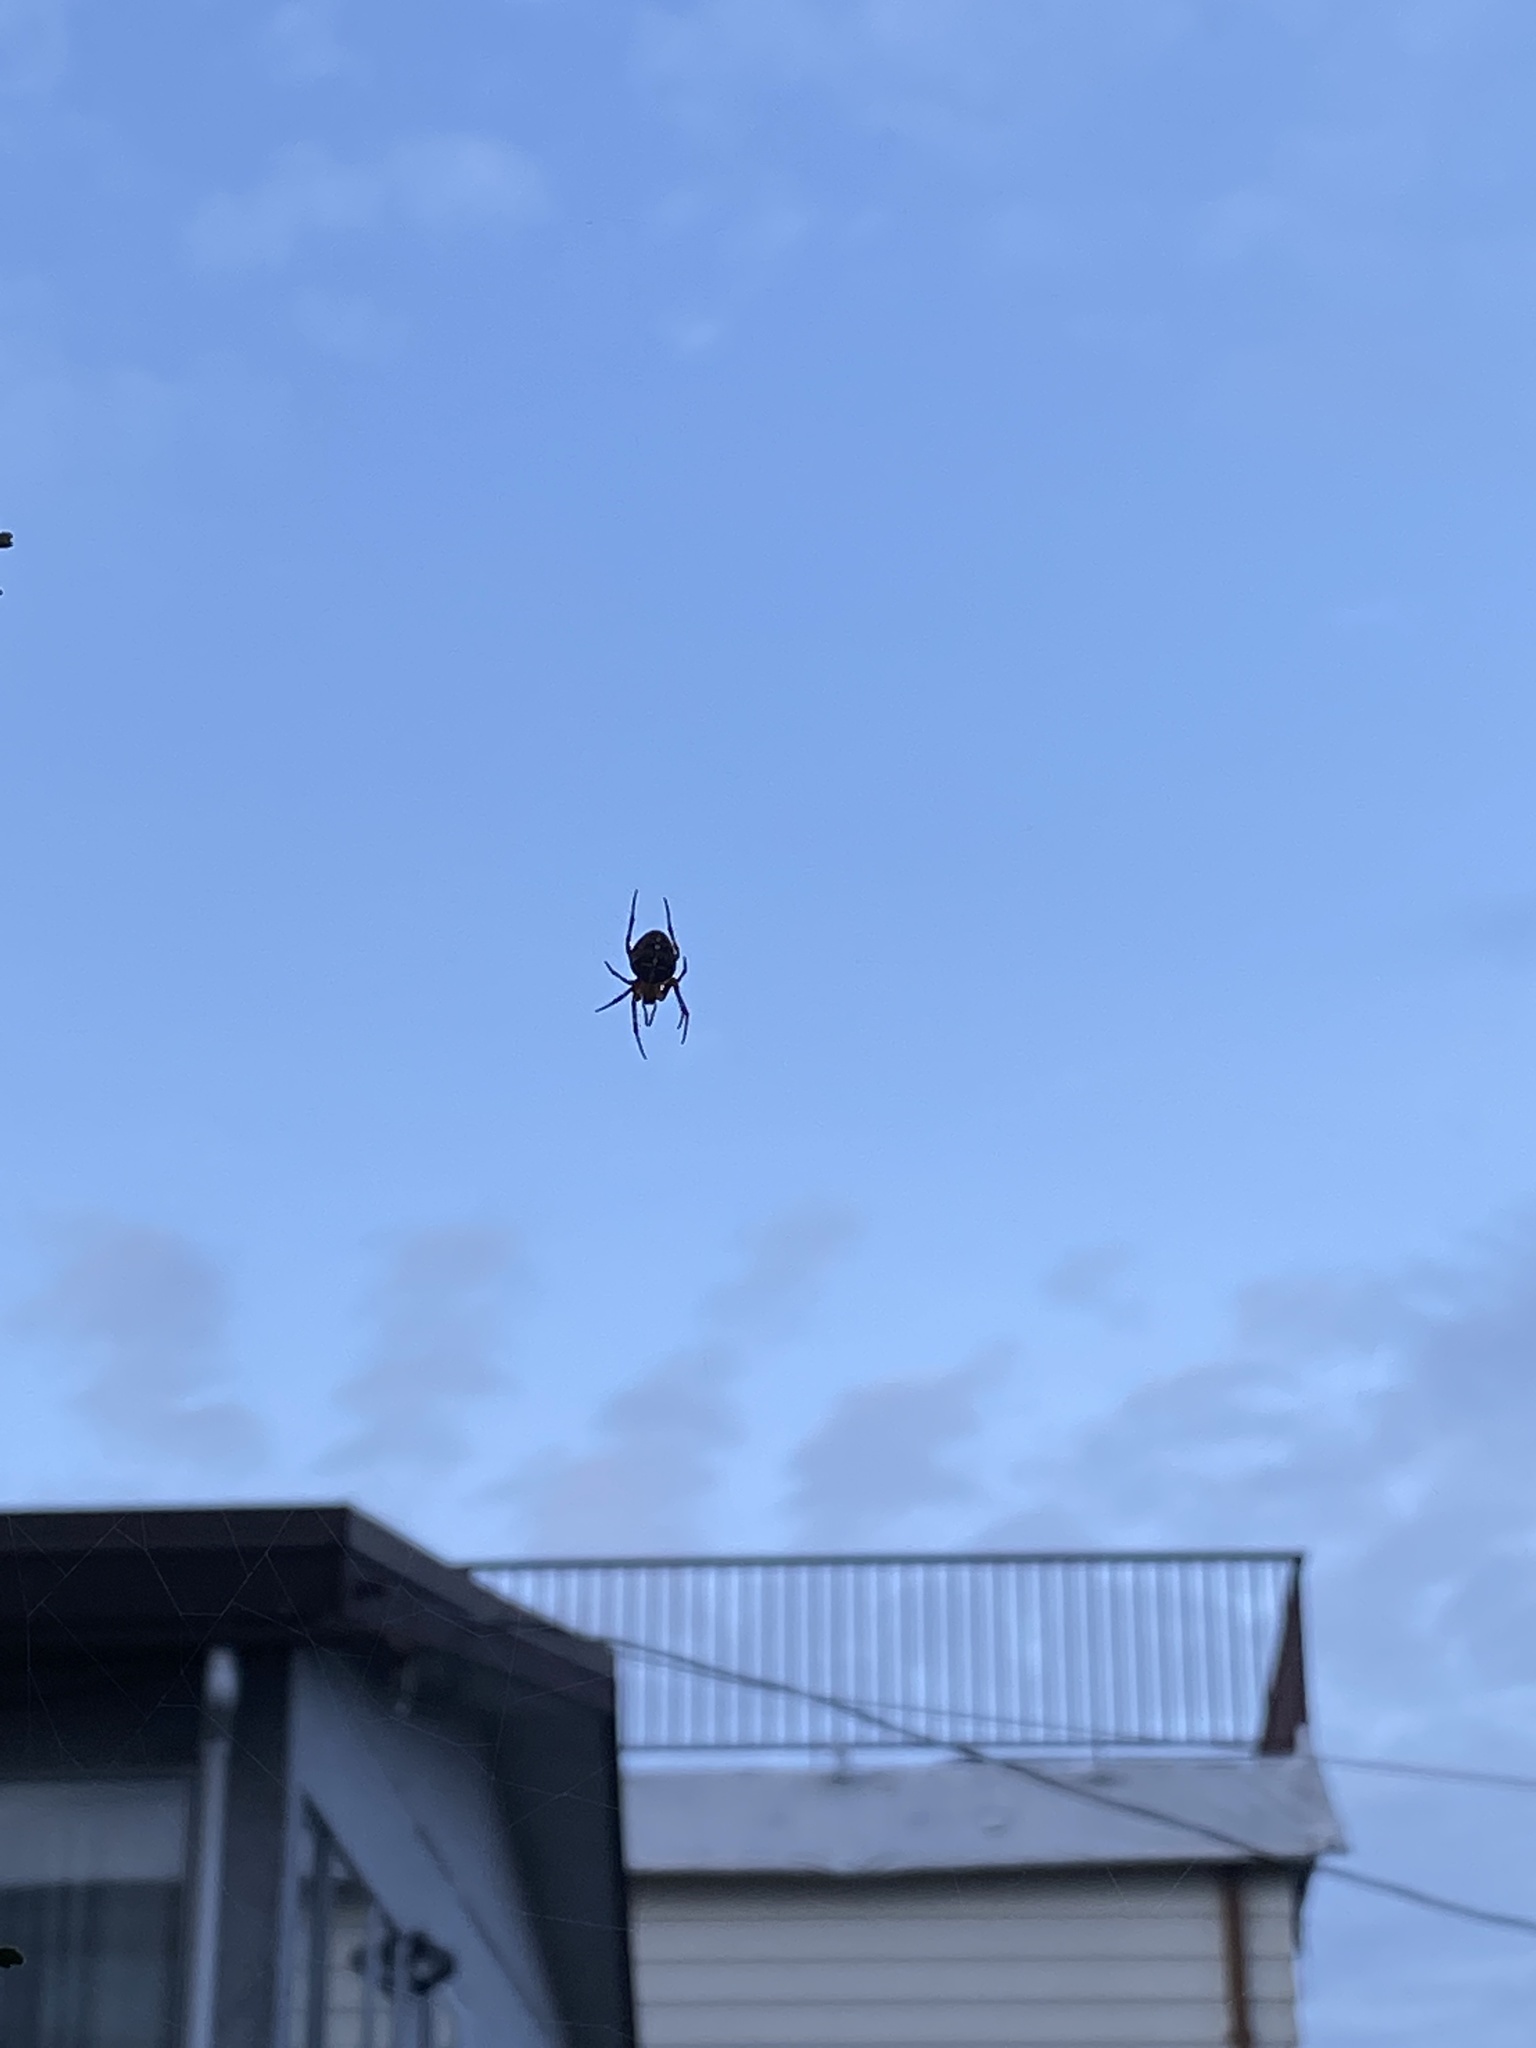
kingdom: Animalia
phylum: Arthropoda
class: Arachnida
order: Araneae
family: Araneidae
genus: Araneus
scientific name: Araneus diadematus
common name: Cross orbweaver
